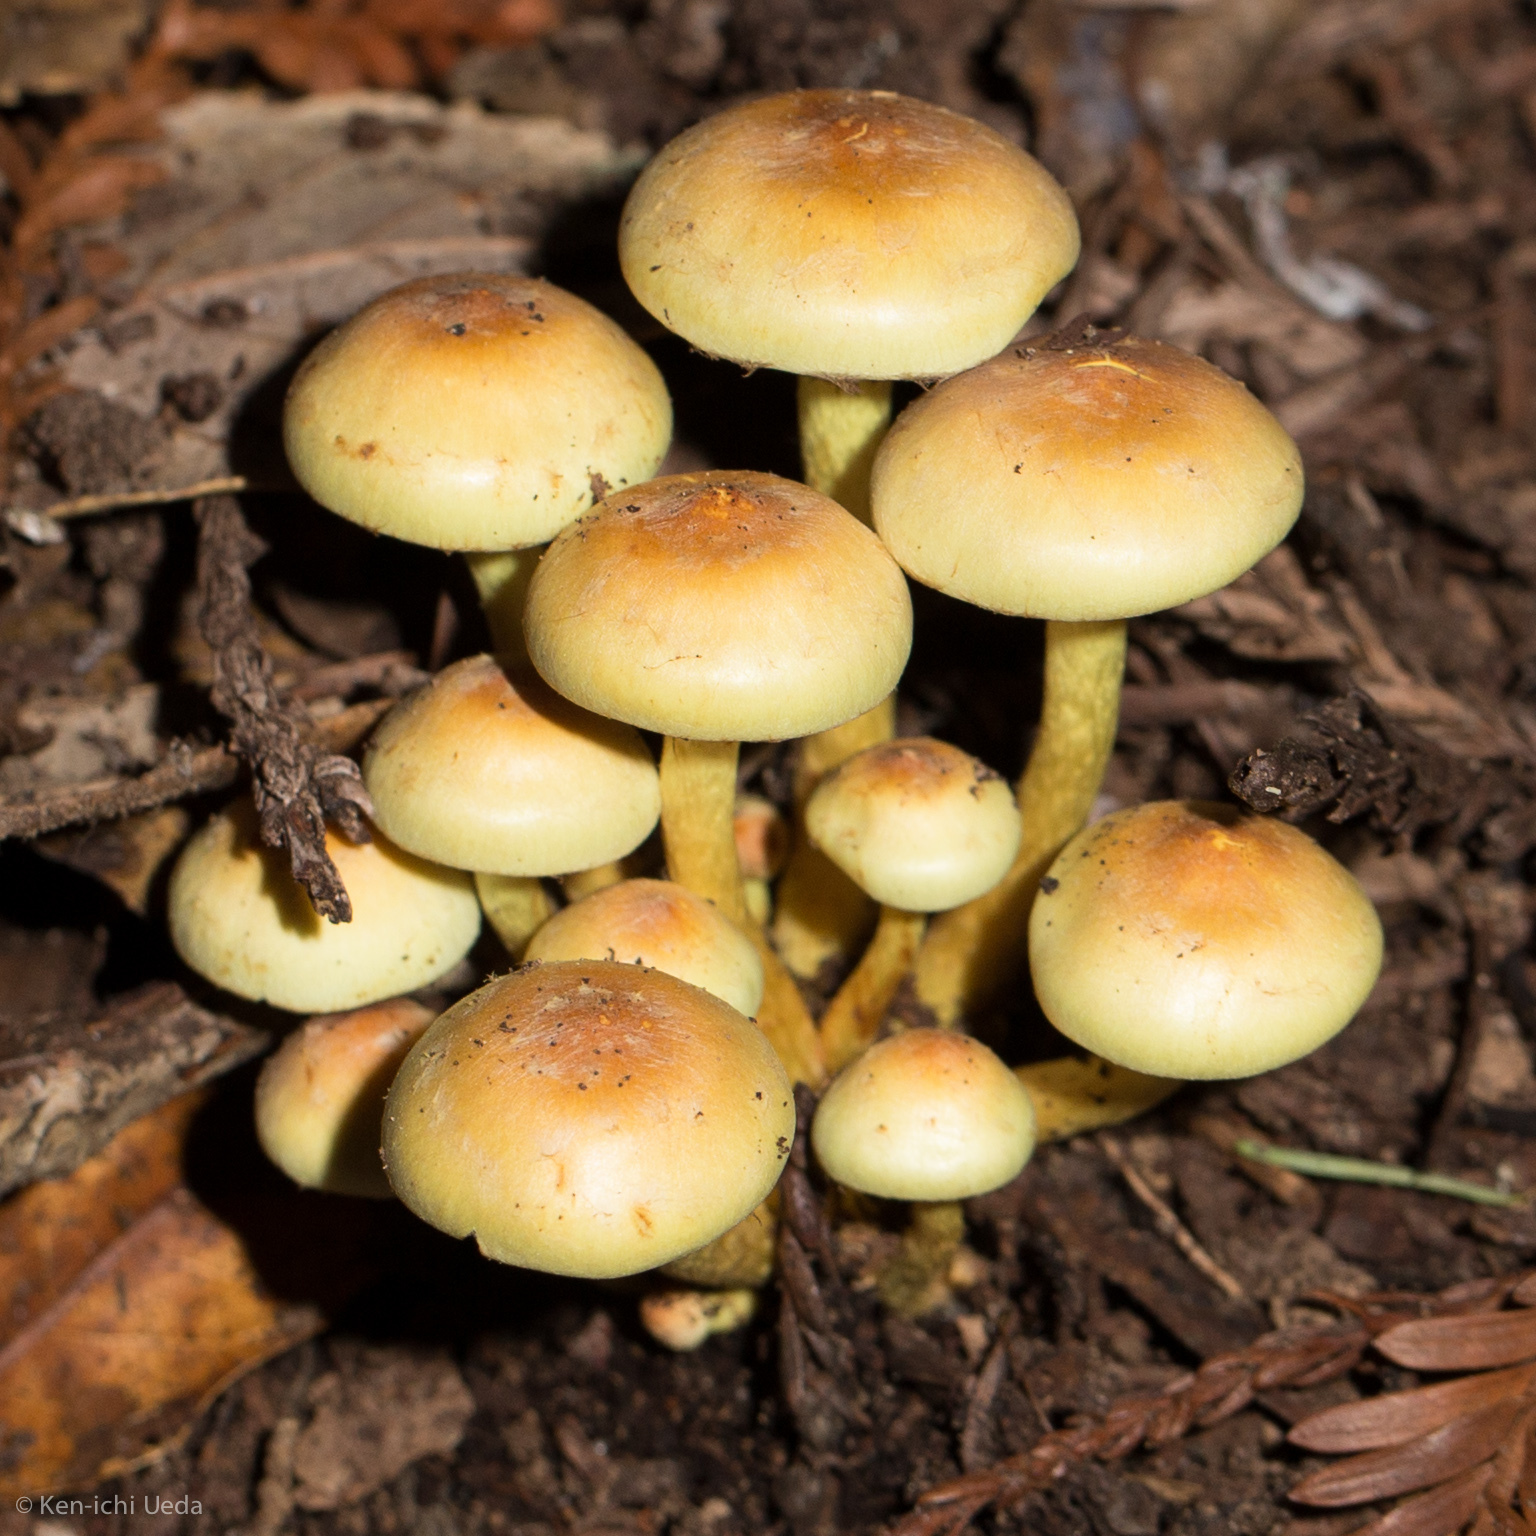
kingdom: Fungi
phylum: Basidiomycota
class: Agaricomycetes
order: Agaricales
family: Strophariaceae
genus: Hypholoma
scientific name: Hypholoma fasciculare
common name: Sulphur tuft
